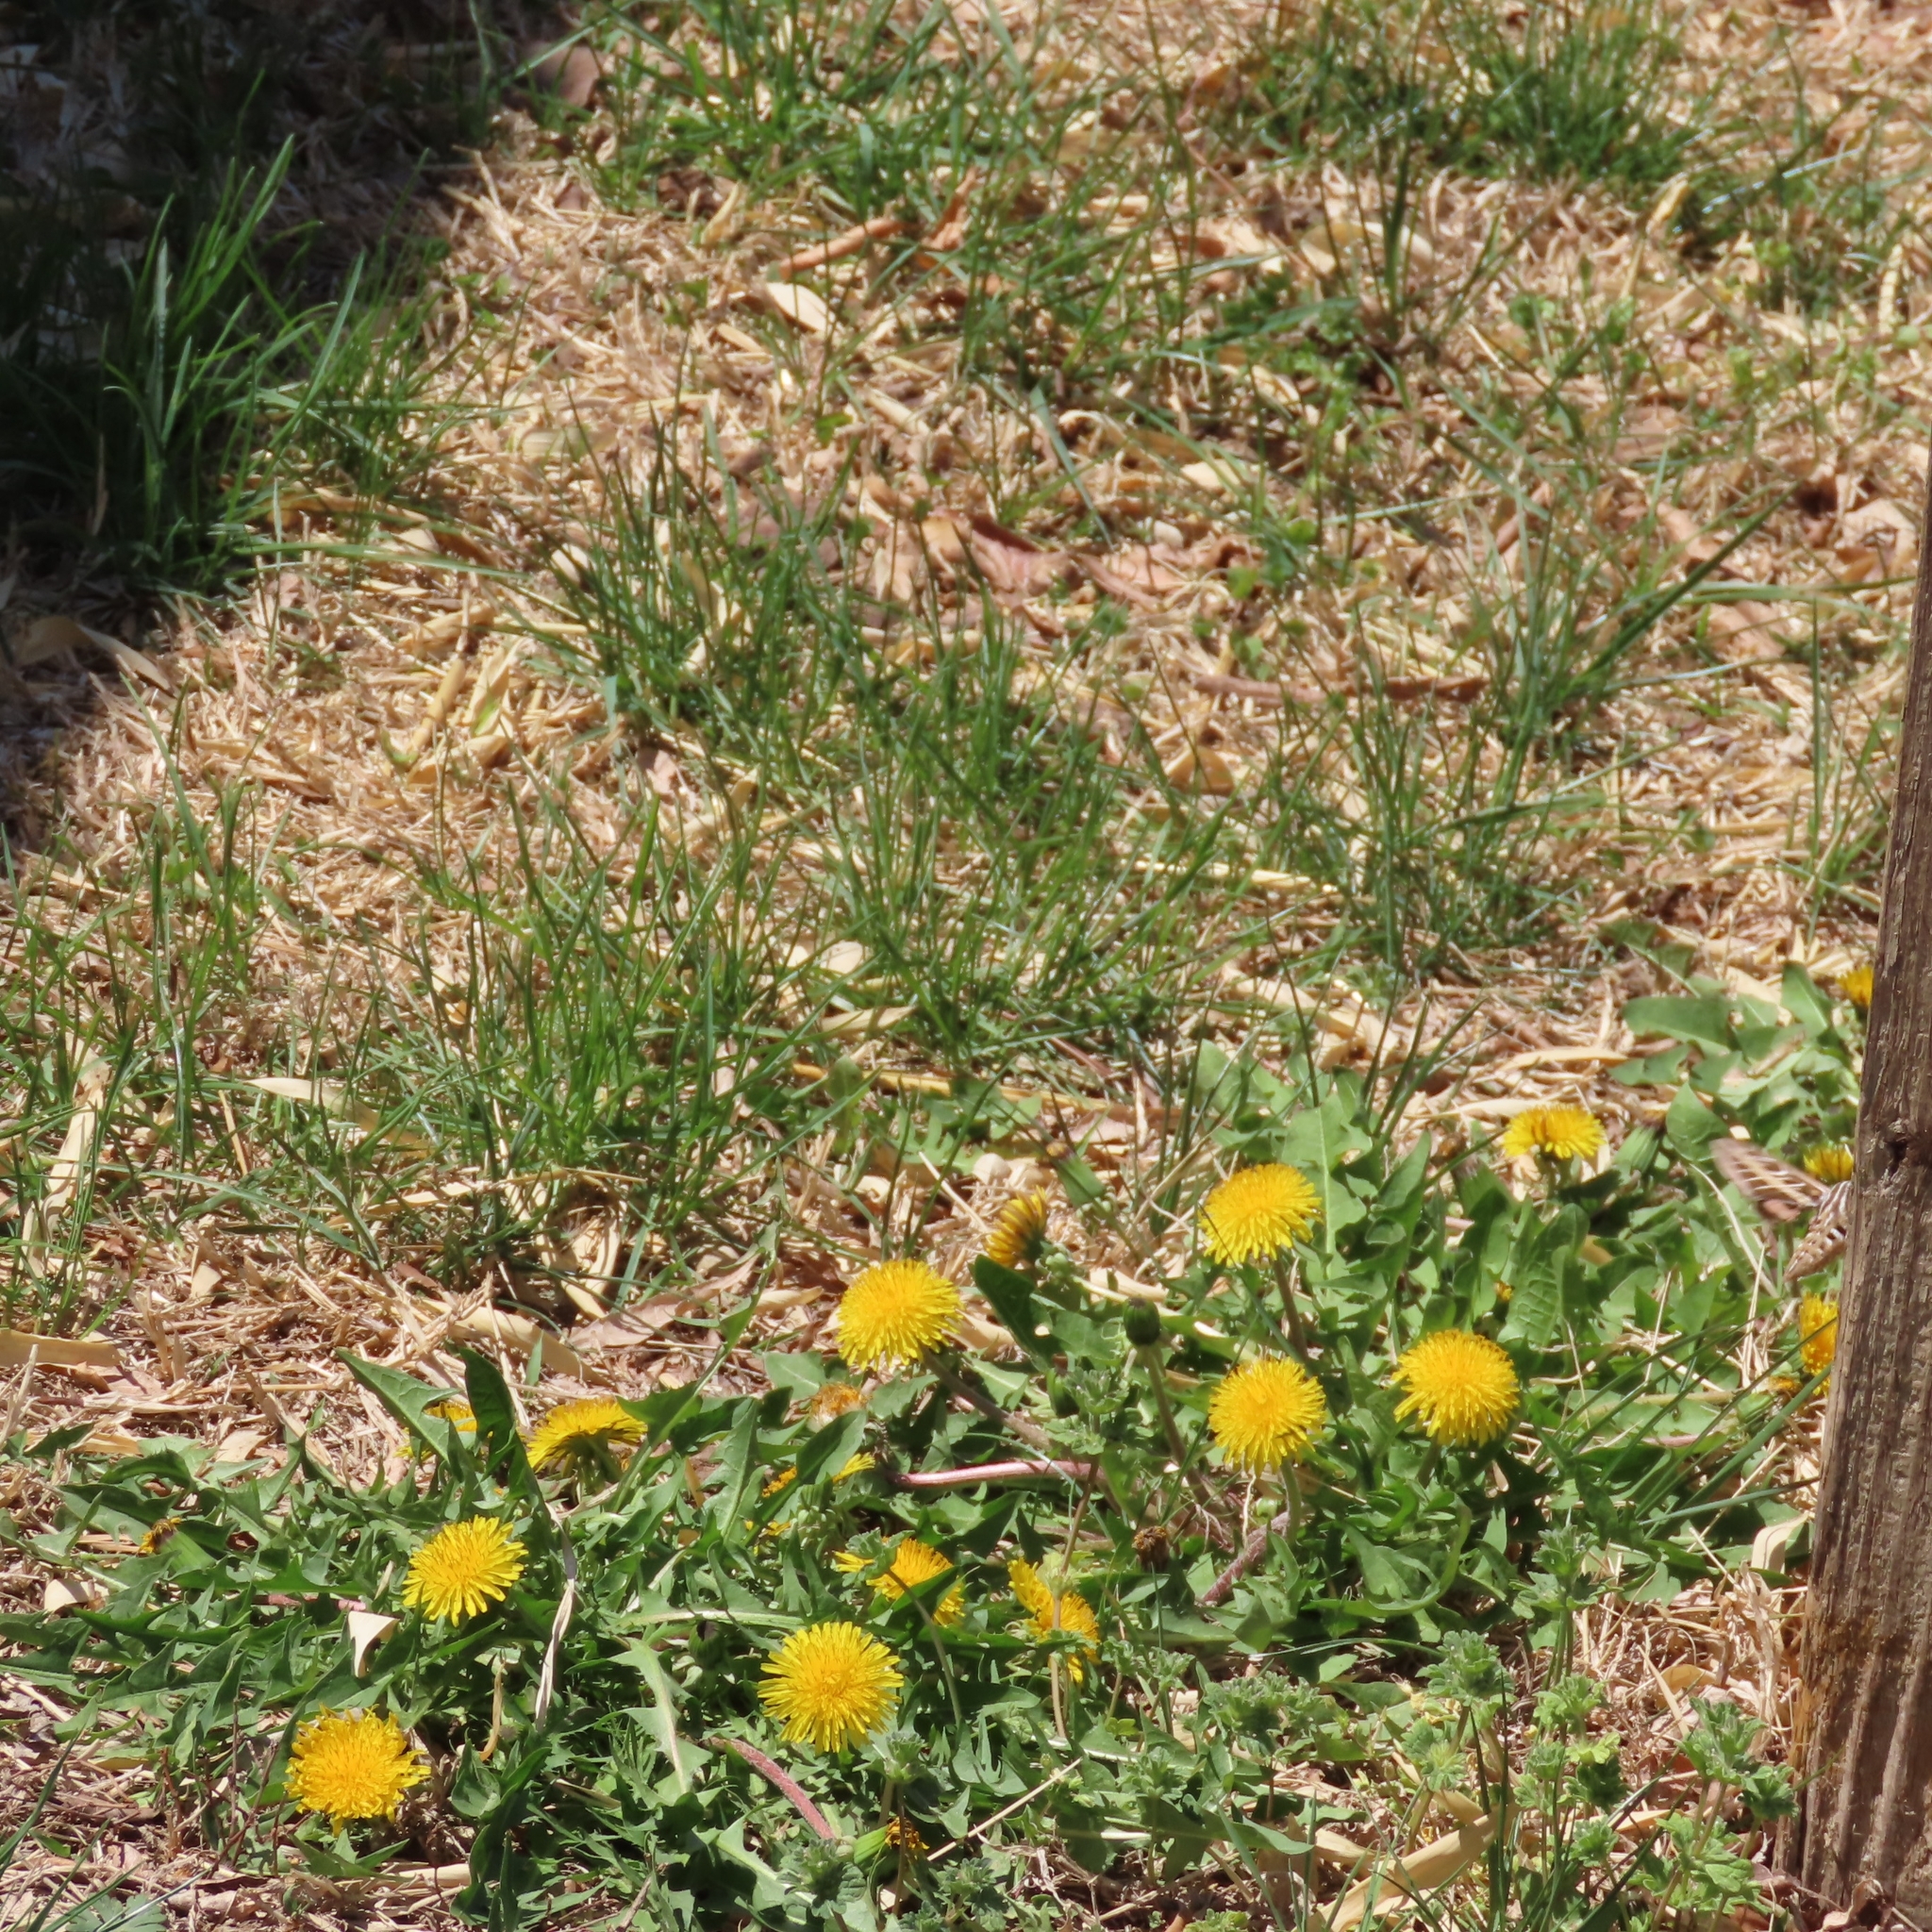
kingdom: Plantae
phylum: Tracheophyta
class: Magnoliopsida
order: Asterales
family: Asteraceae
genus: Taraxacum
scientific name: Taraxacum officinale
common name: Common dandelion
